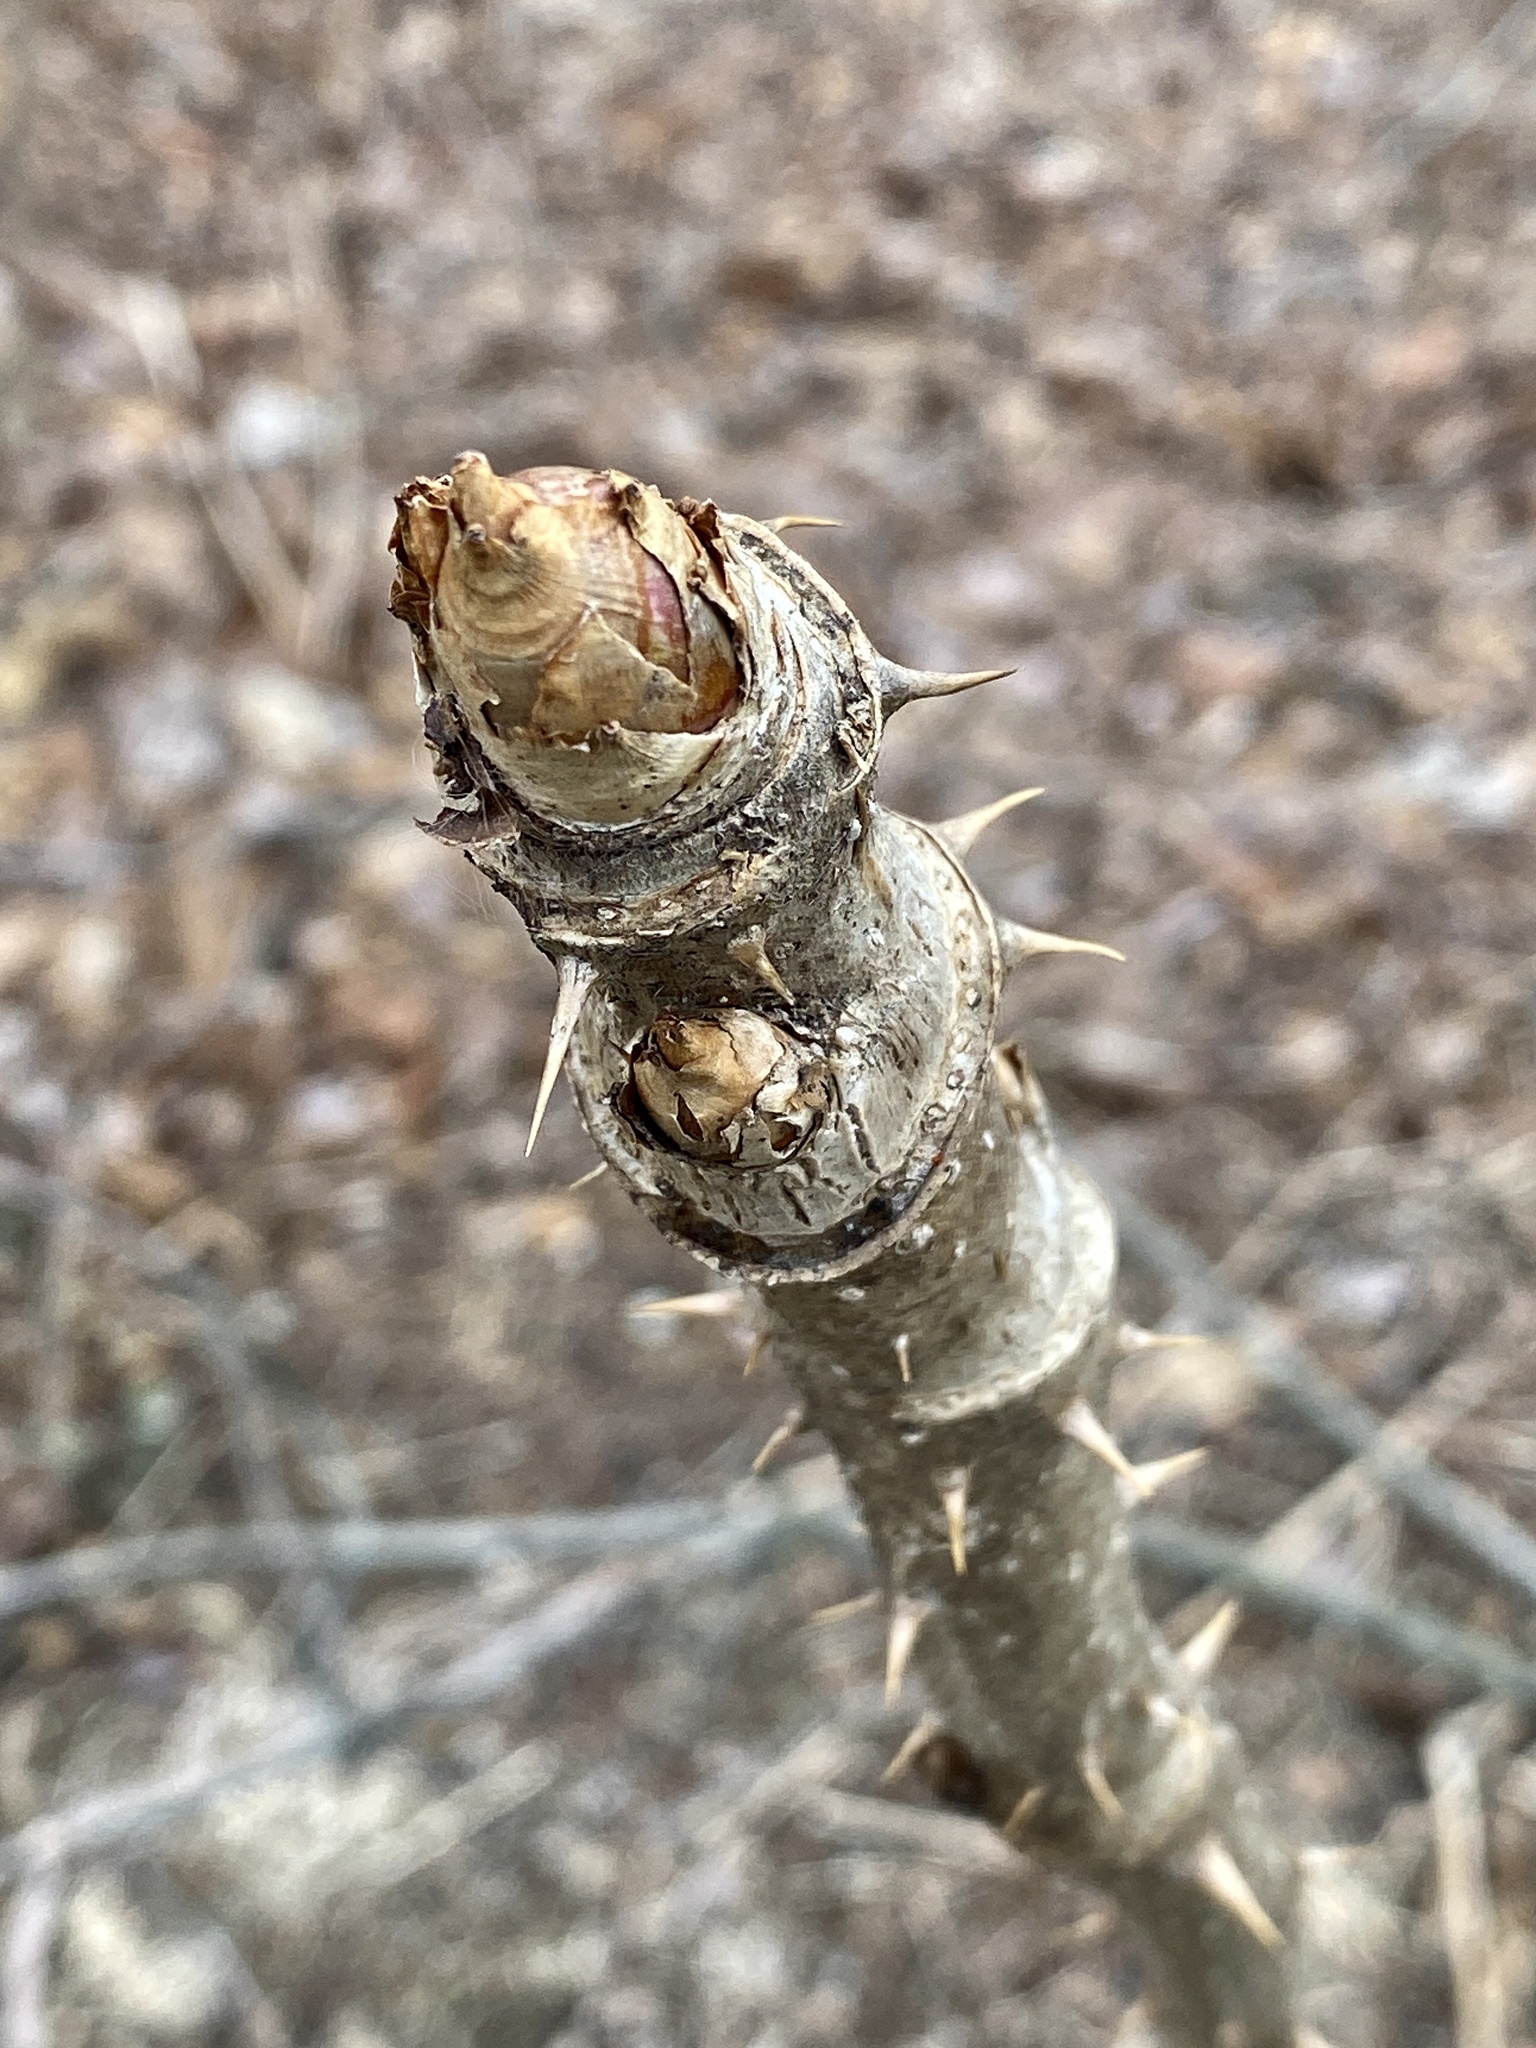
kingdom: Plantae
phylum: Tracheophyta
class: Magnoliopsida
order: Apiales
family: Araliaceae
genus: Aralia
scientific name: Aralia elata
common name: Japanese angelica-tree
